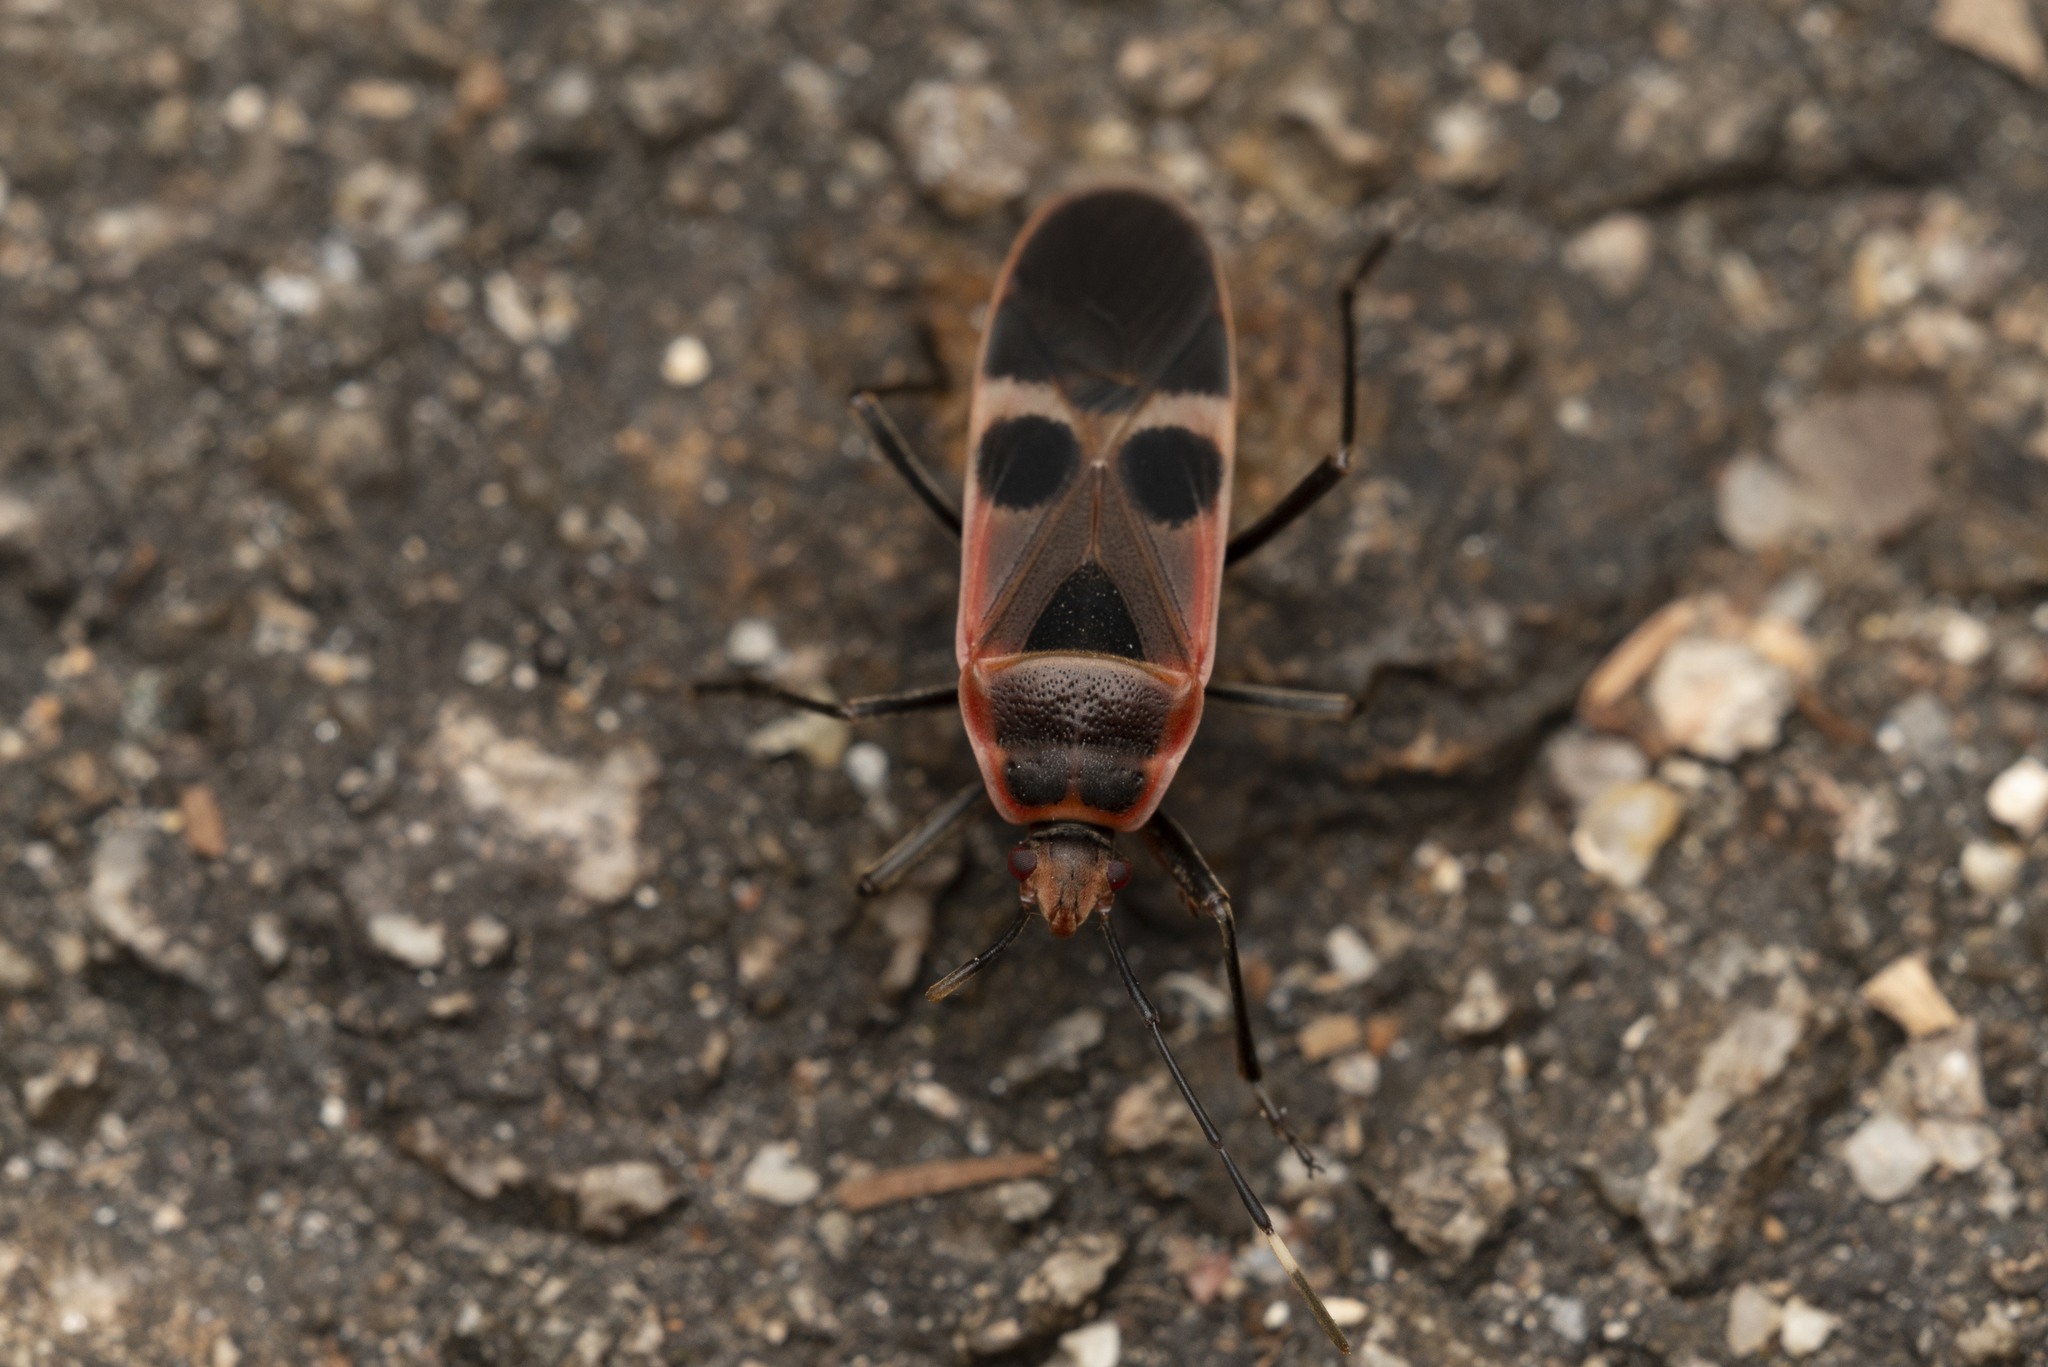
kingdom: Animalia
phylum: Arthropoda
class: Insecta
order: Hemiptera
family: Largidae
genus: Physopelta
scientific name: Physopelta gutta
